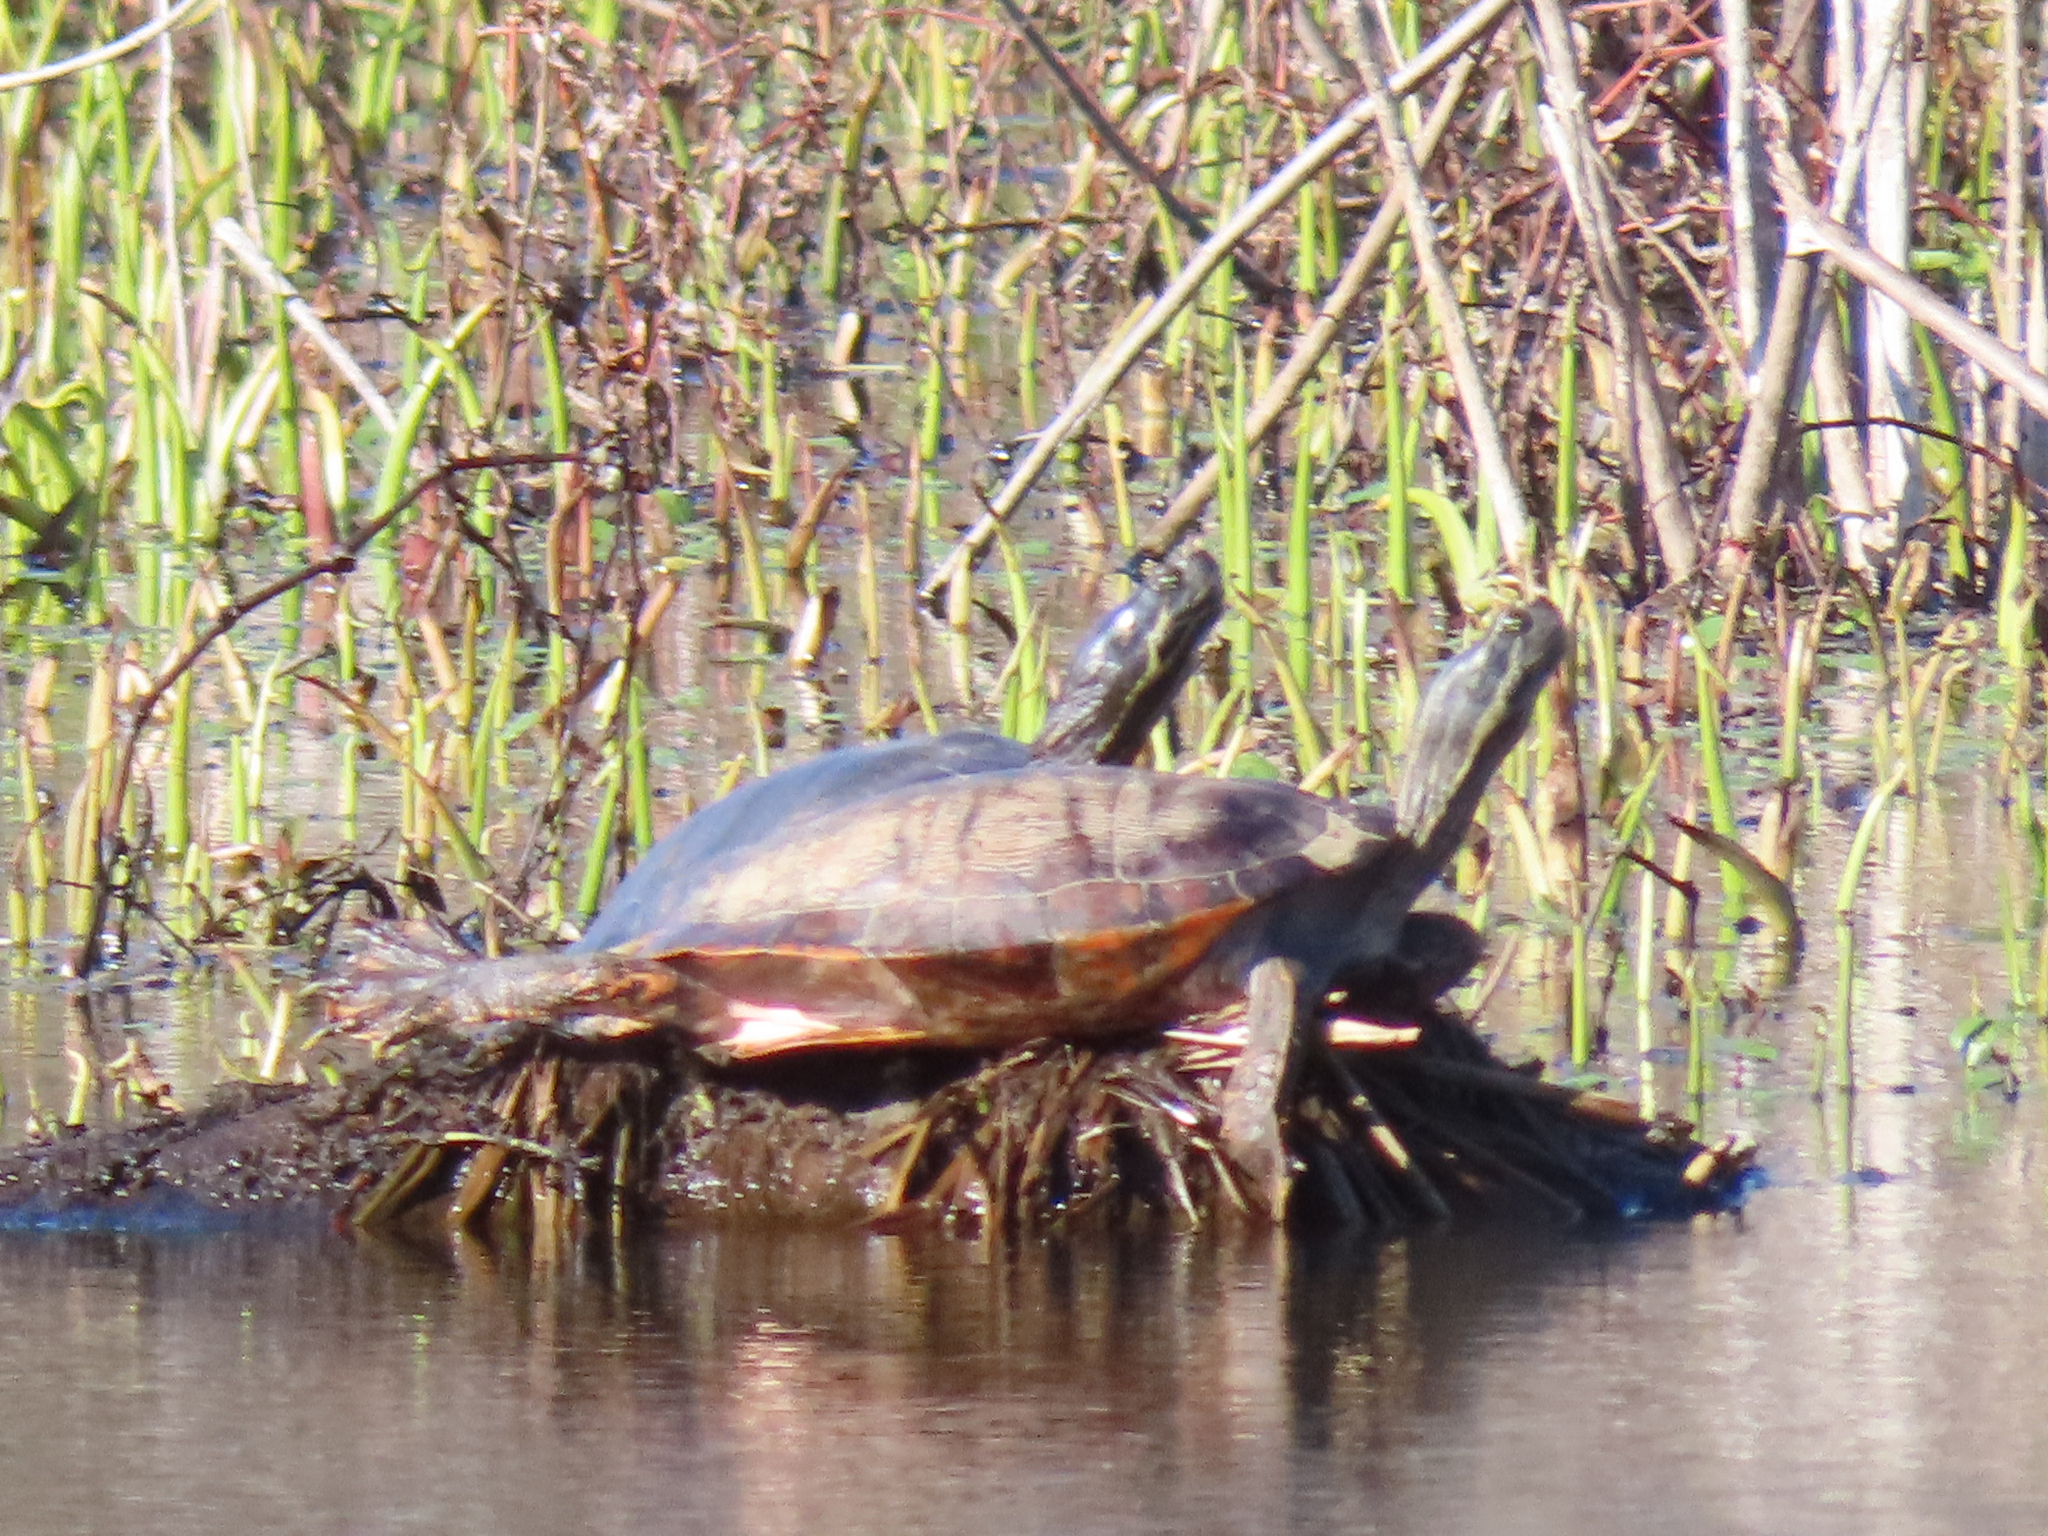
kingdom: Animalia
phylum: Chordata
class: Testudines
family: Emydidae
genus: Pseudemys
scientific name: Pseudemys rubriventris
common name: American red-bellied turtle
